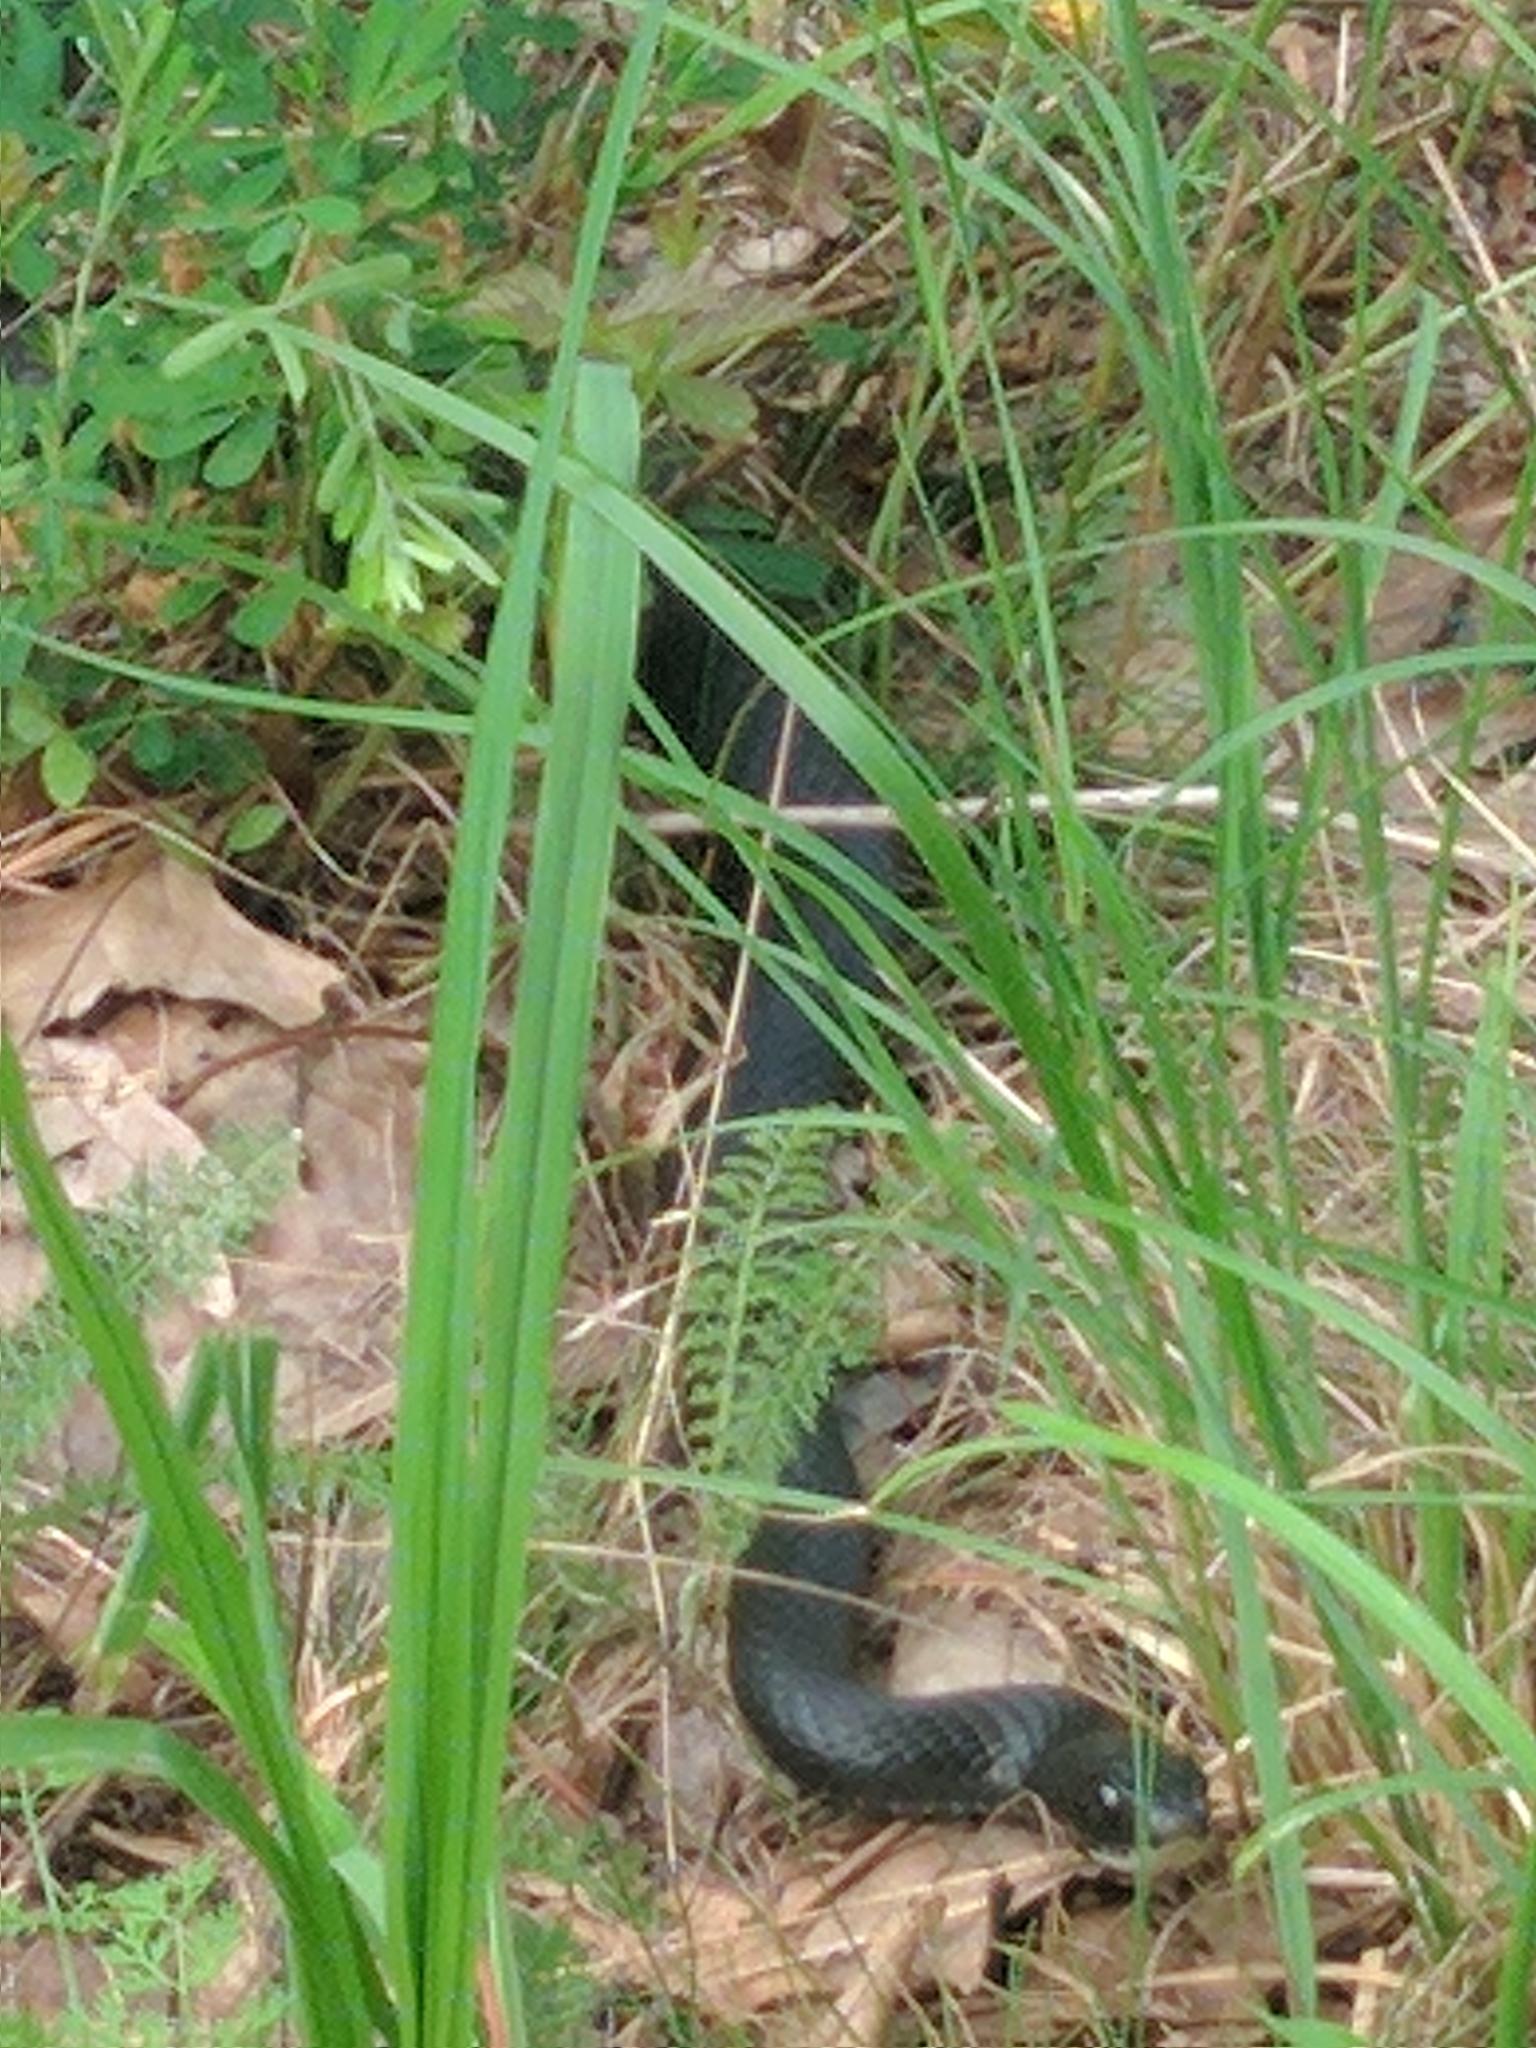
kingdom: Animalia
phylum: Chordata
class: Squamata
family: Colubridae
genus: Coluber
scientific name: Coluber constrictor
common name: Eastern racer
